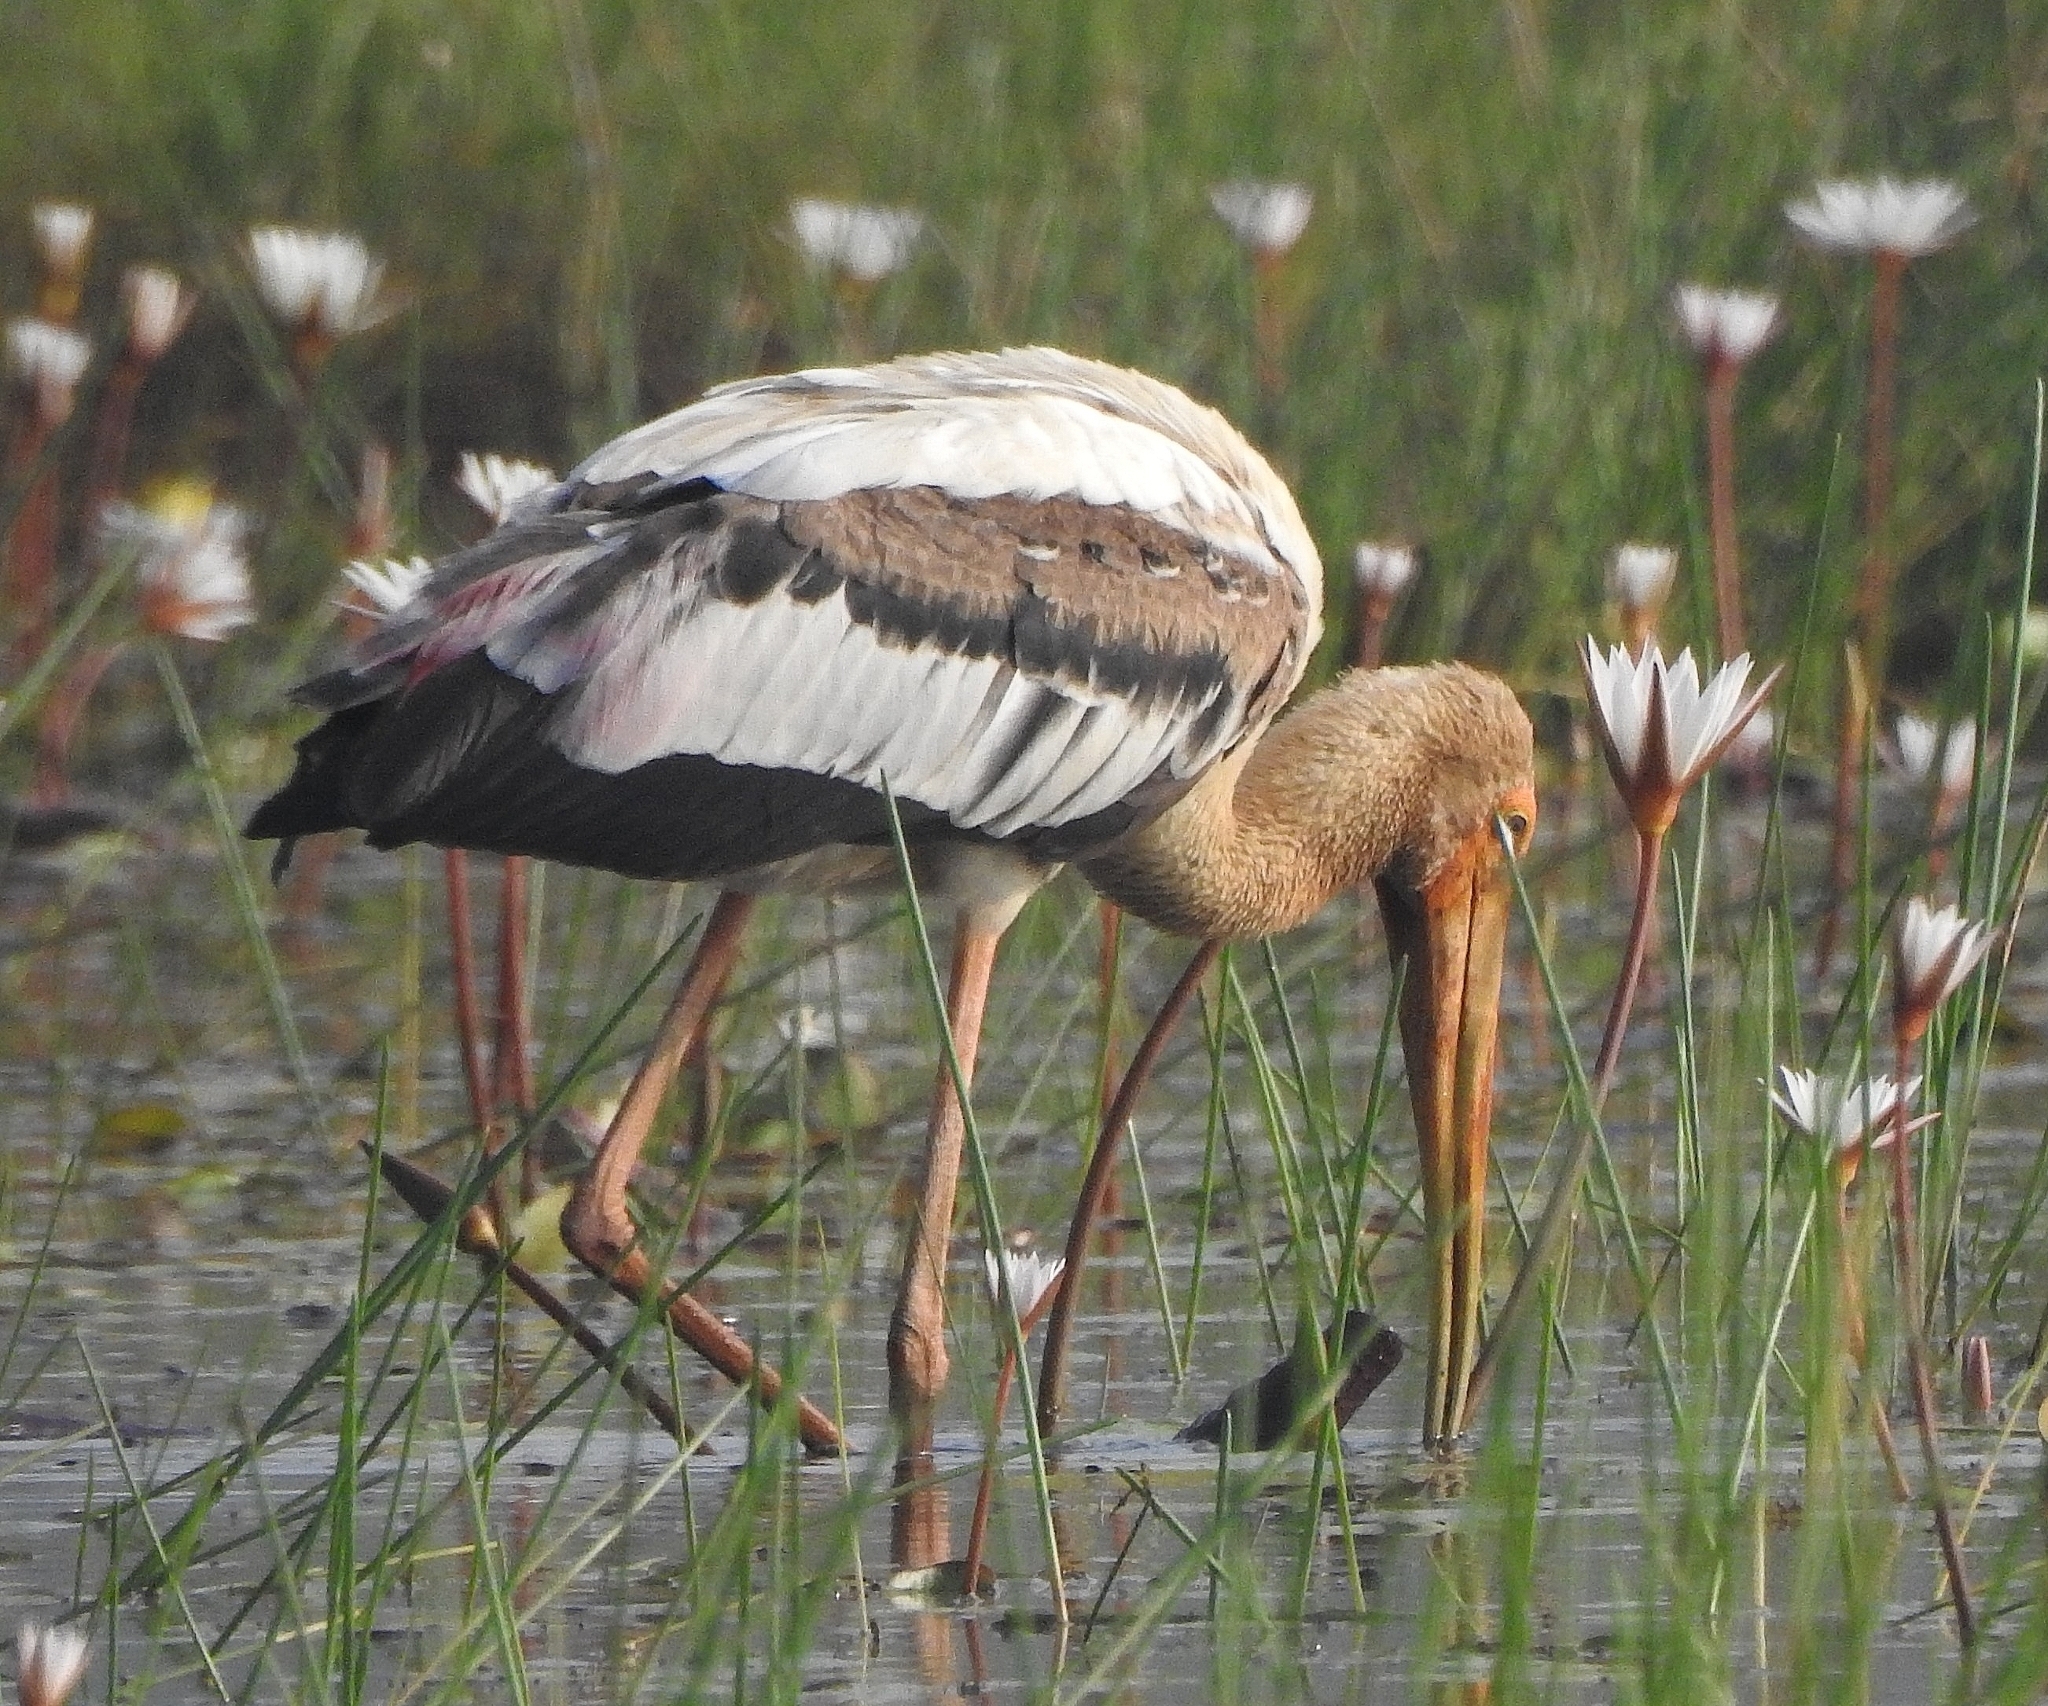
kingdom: Animalia
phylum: Chordata
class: Aves
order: Ciconiiformes
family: Ciconiidae
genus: Mycteria
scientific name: Mycteria leucocephala
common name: Painted stork
